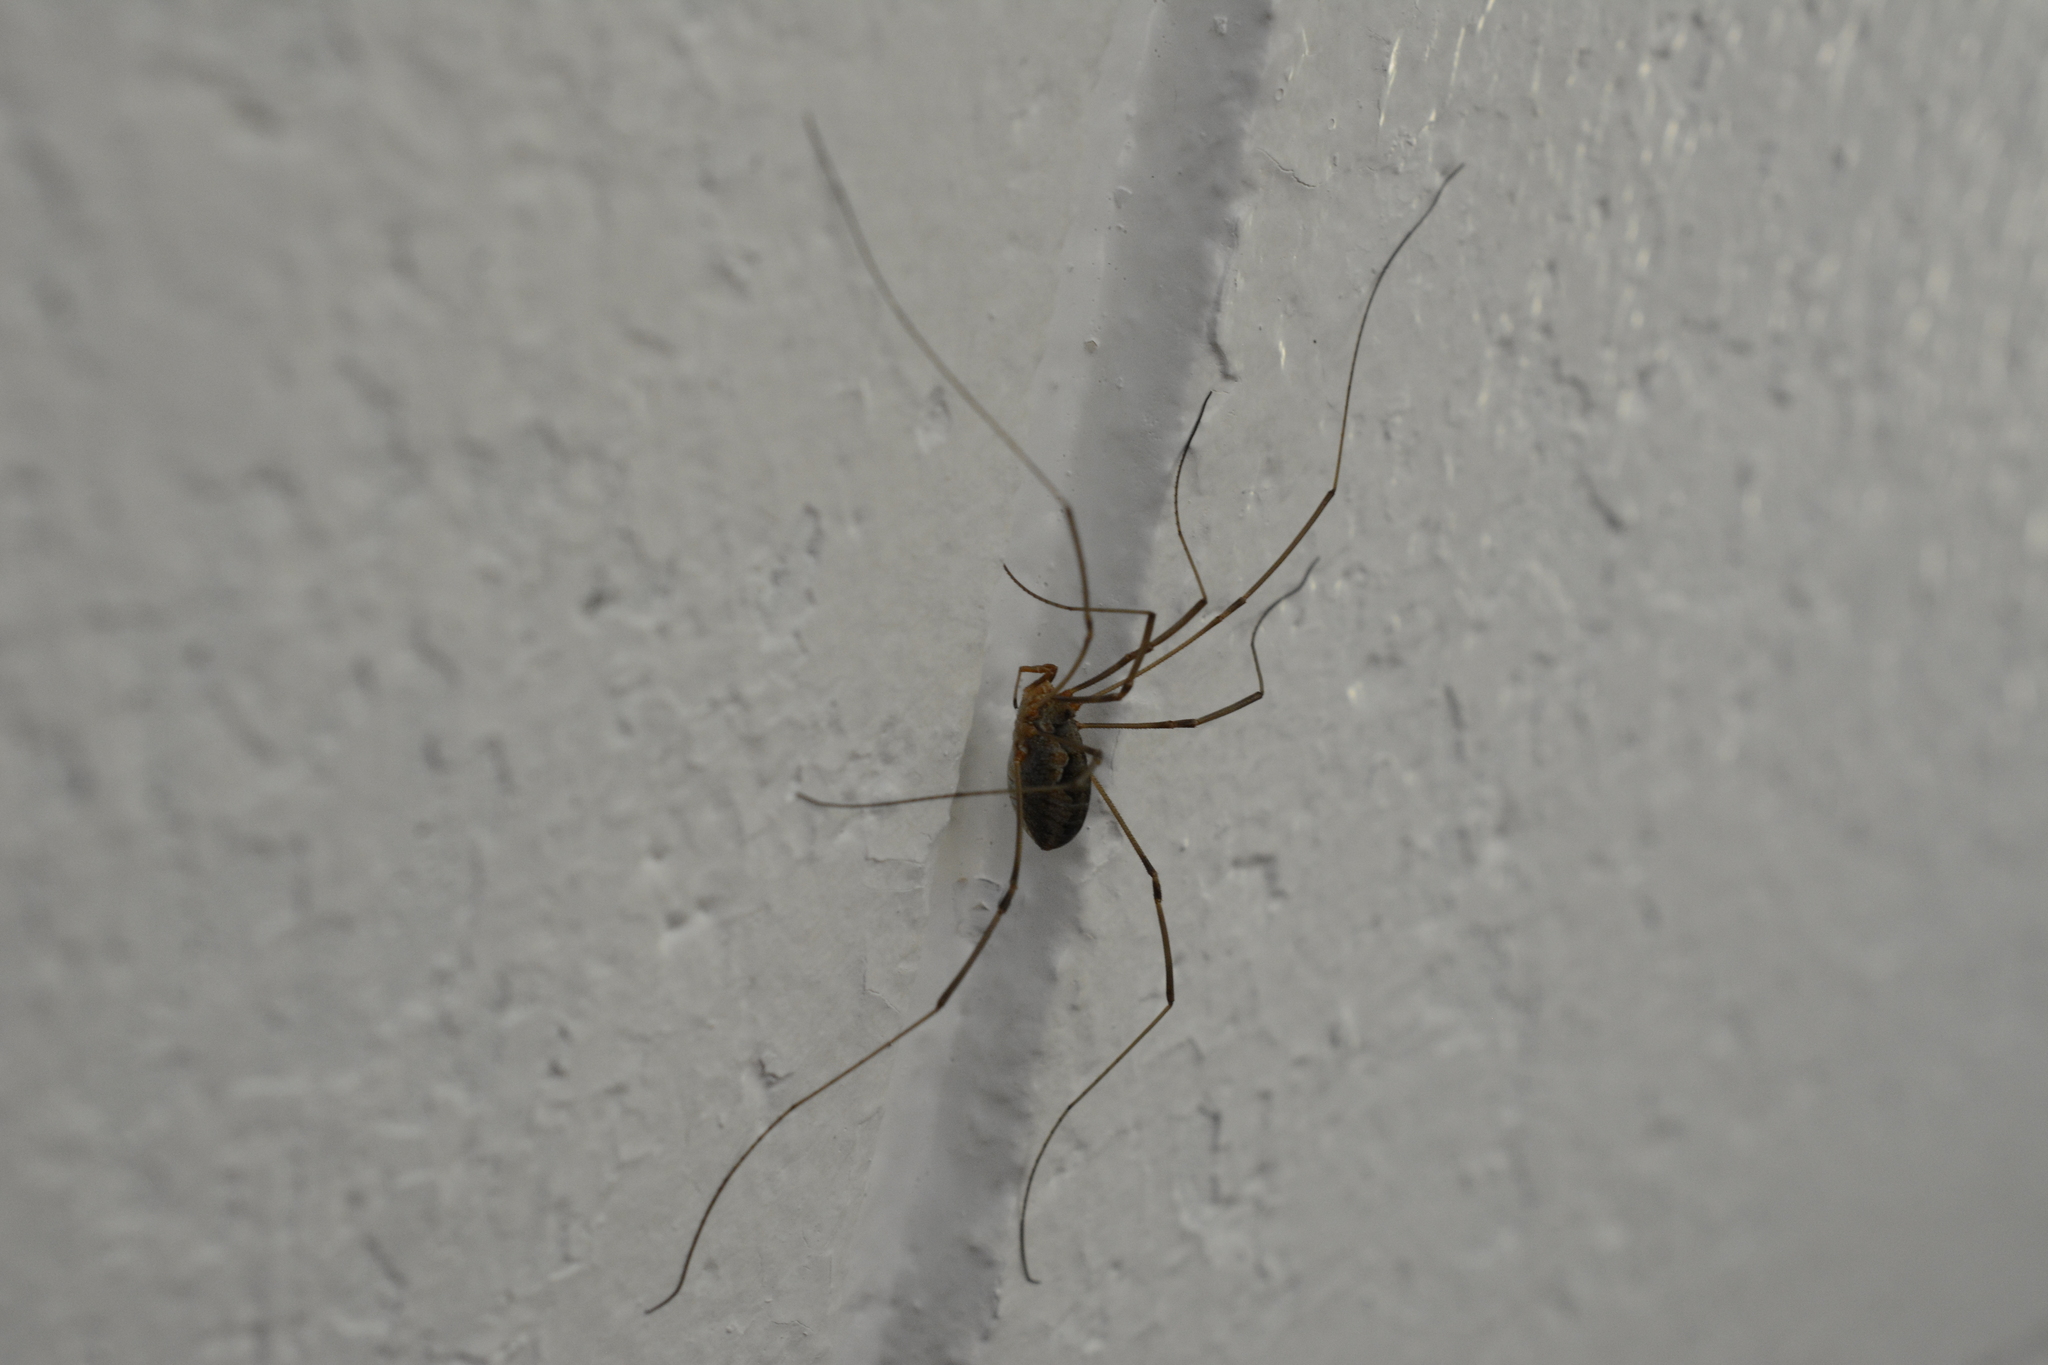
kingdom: Animalia
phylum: Arthropoda
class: Arachnida
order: Opiliones
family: Phalangiidae
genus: Phalangium
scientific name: Phalangium opilio
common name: Daddy longleg
